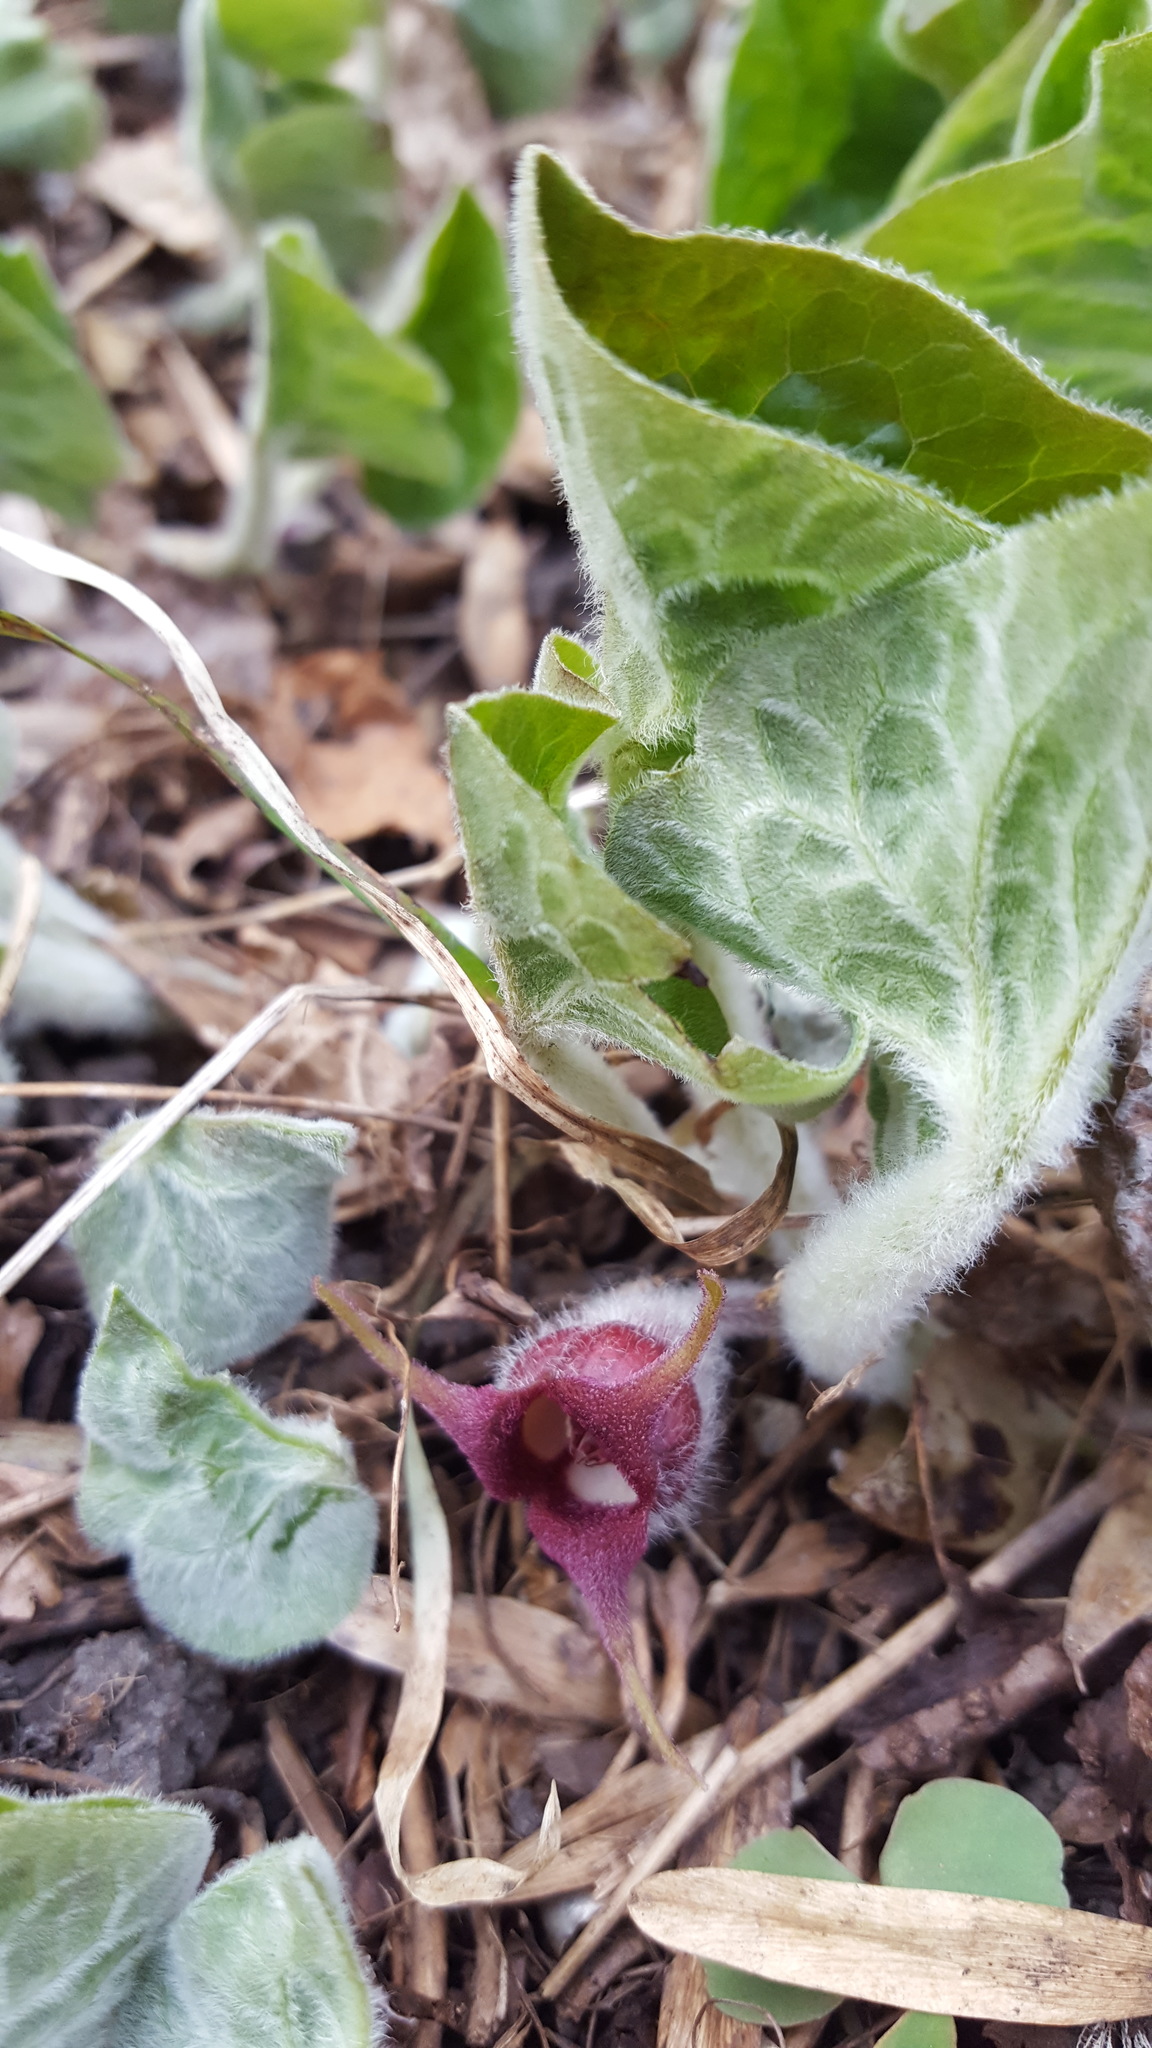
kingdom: Plantae
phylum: Tracheophyta
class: Magnoliopsida
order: Piperales
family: Aristolochiaceae
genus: Asarum
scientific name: Asarum canadense
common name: Wild ginger
